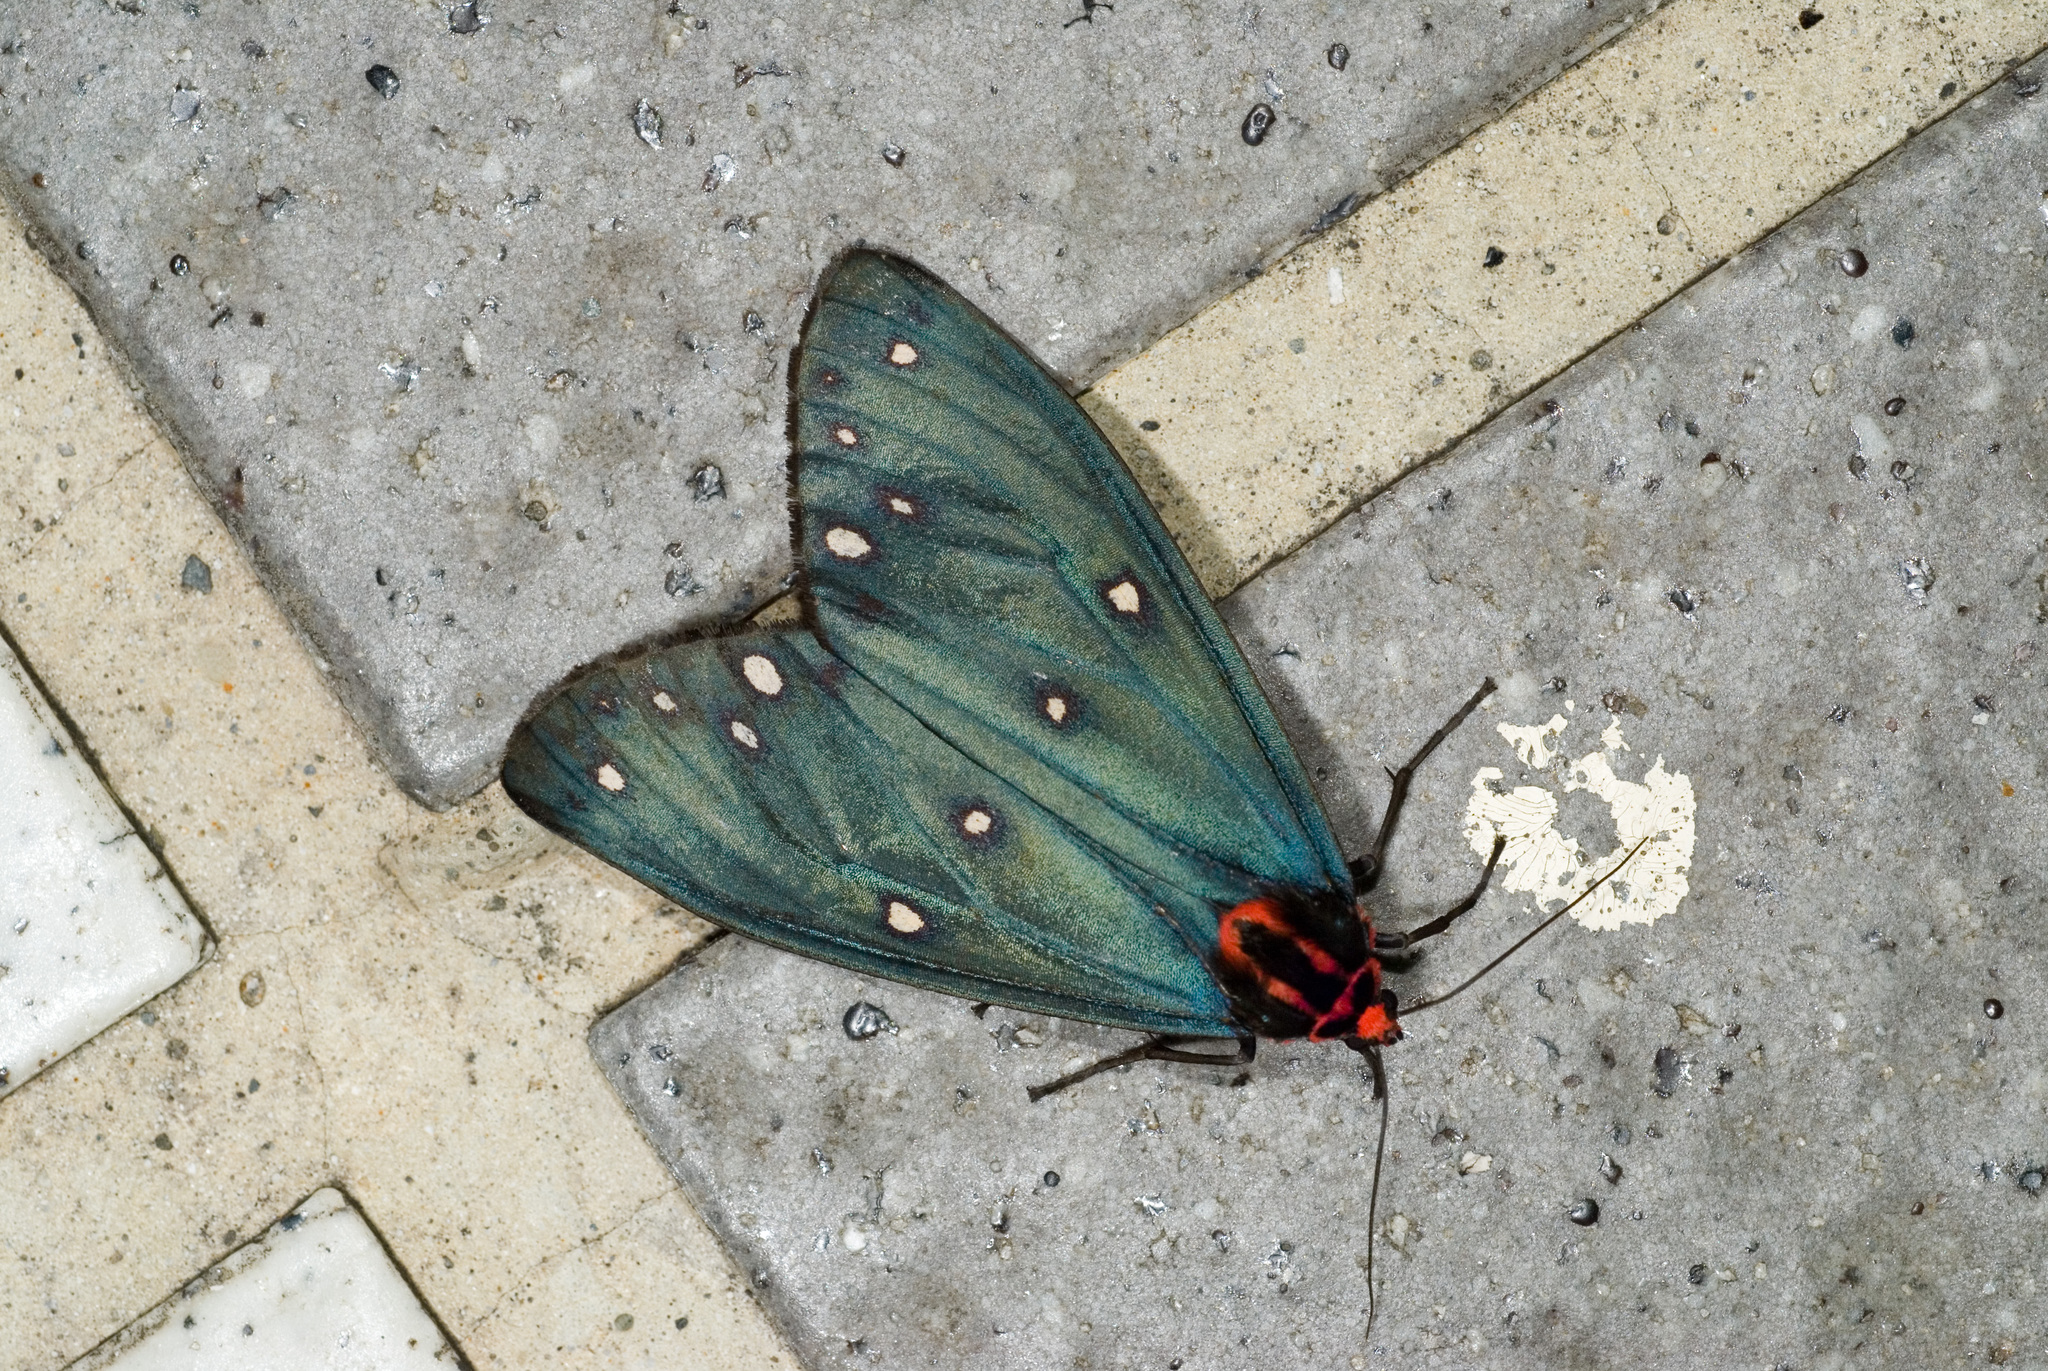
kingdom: Animalia
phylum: Arthropoda
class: Insecta
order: Lepidoptera
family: Erebidae
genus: Taicallimorpha
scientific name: Taicallimorpha albipuncta
